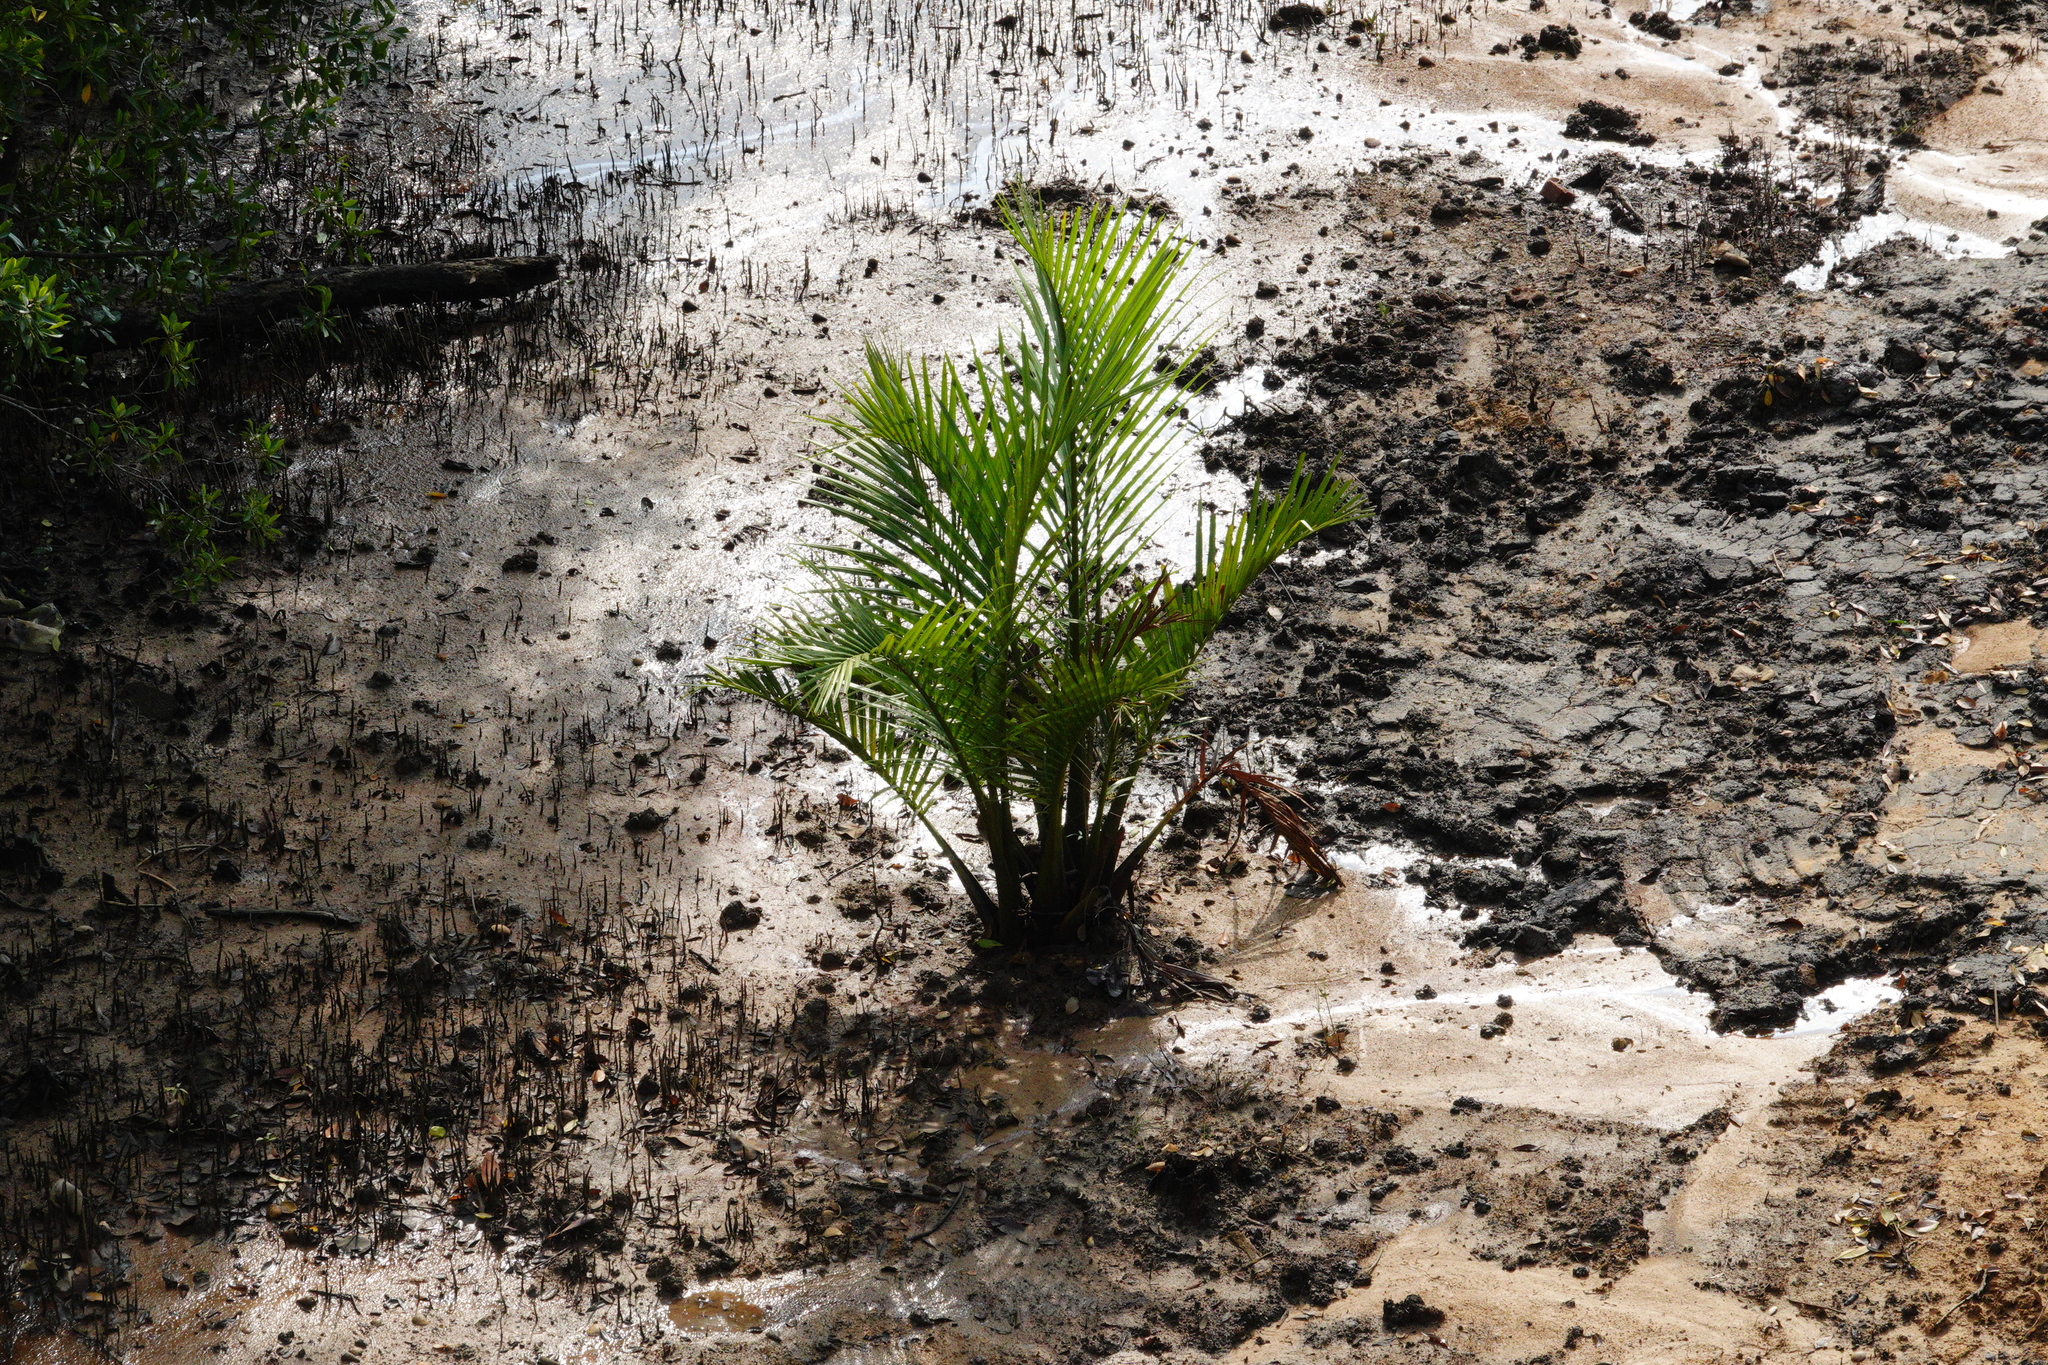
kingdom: Plantae
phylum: Tracheophyta
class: Liliopsida
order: Arecales
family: Arecaceae
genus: Nypa
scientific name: Nypa fruticans
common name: Mangrove palm
